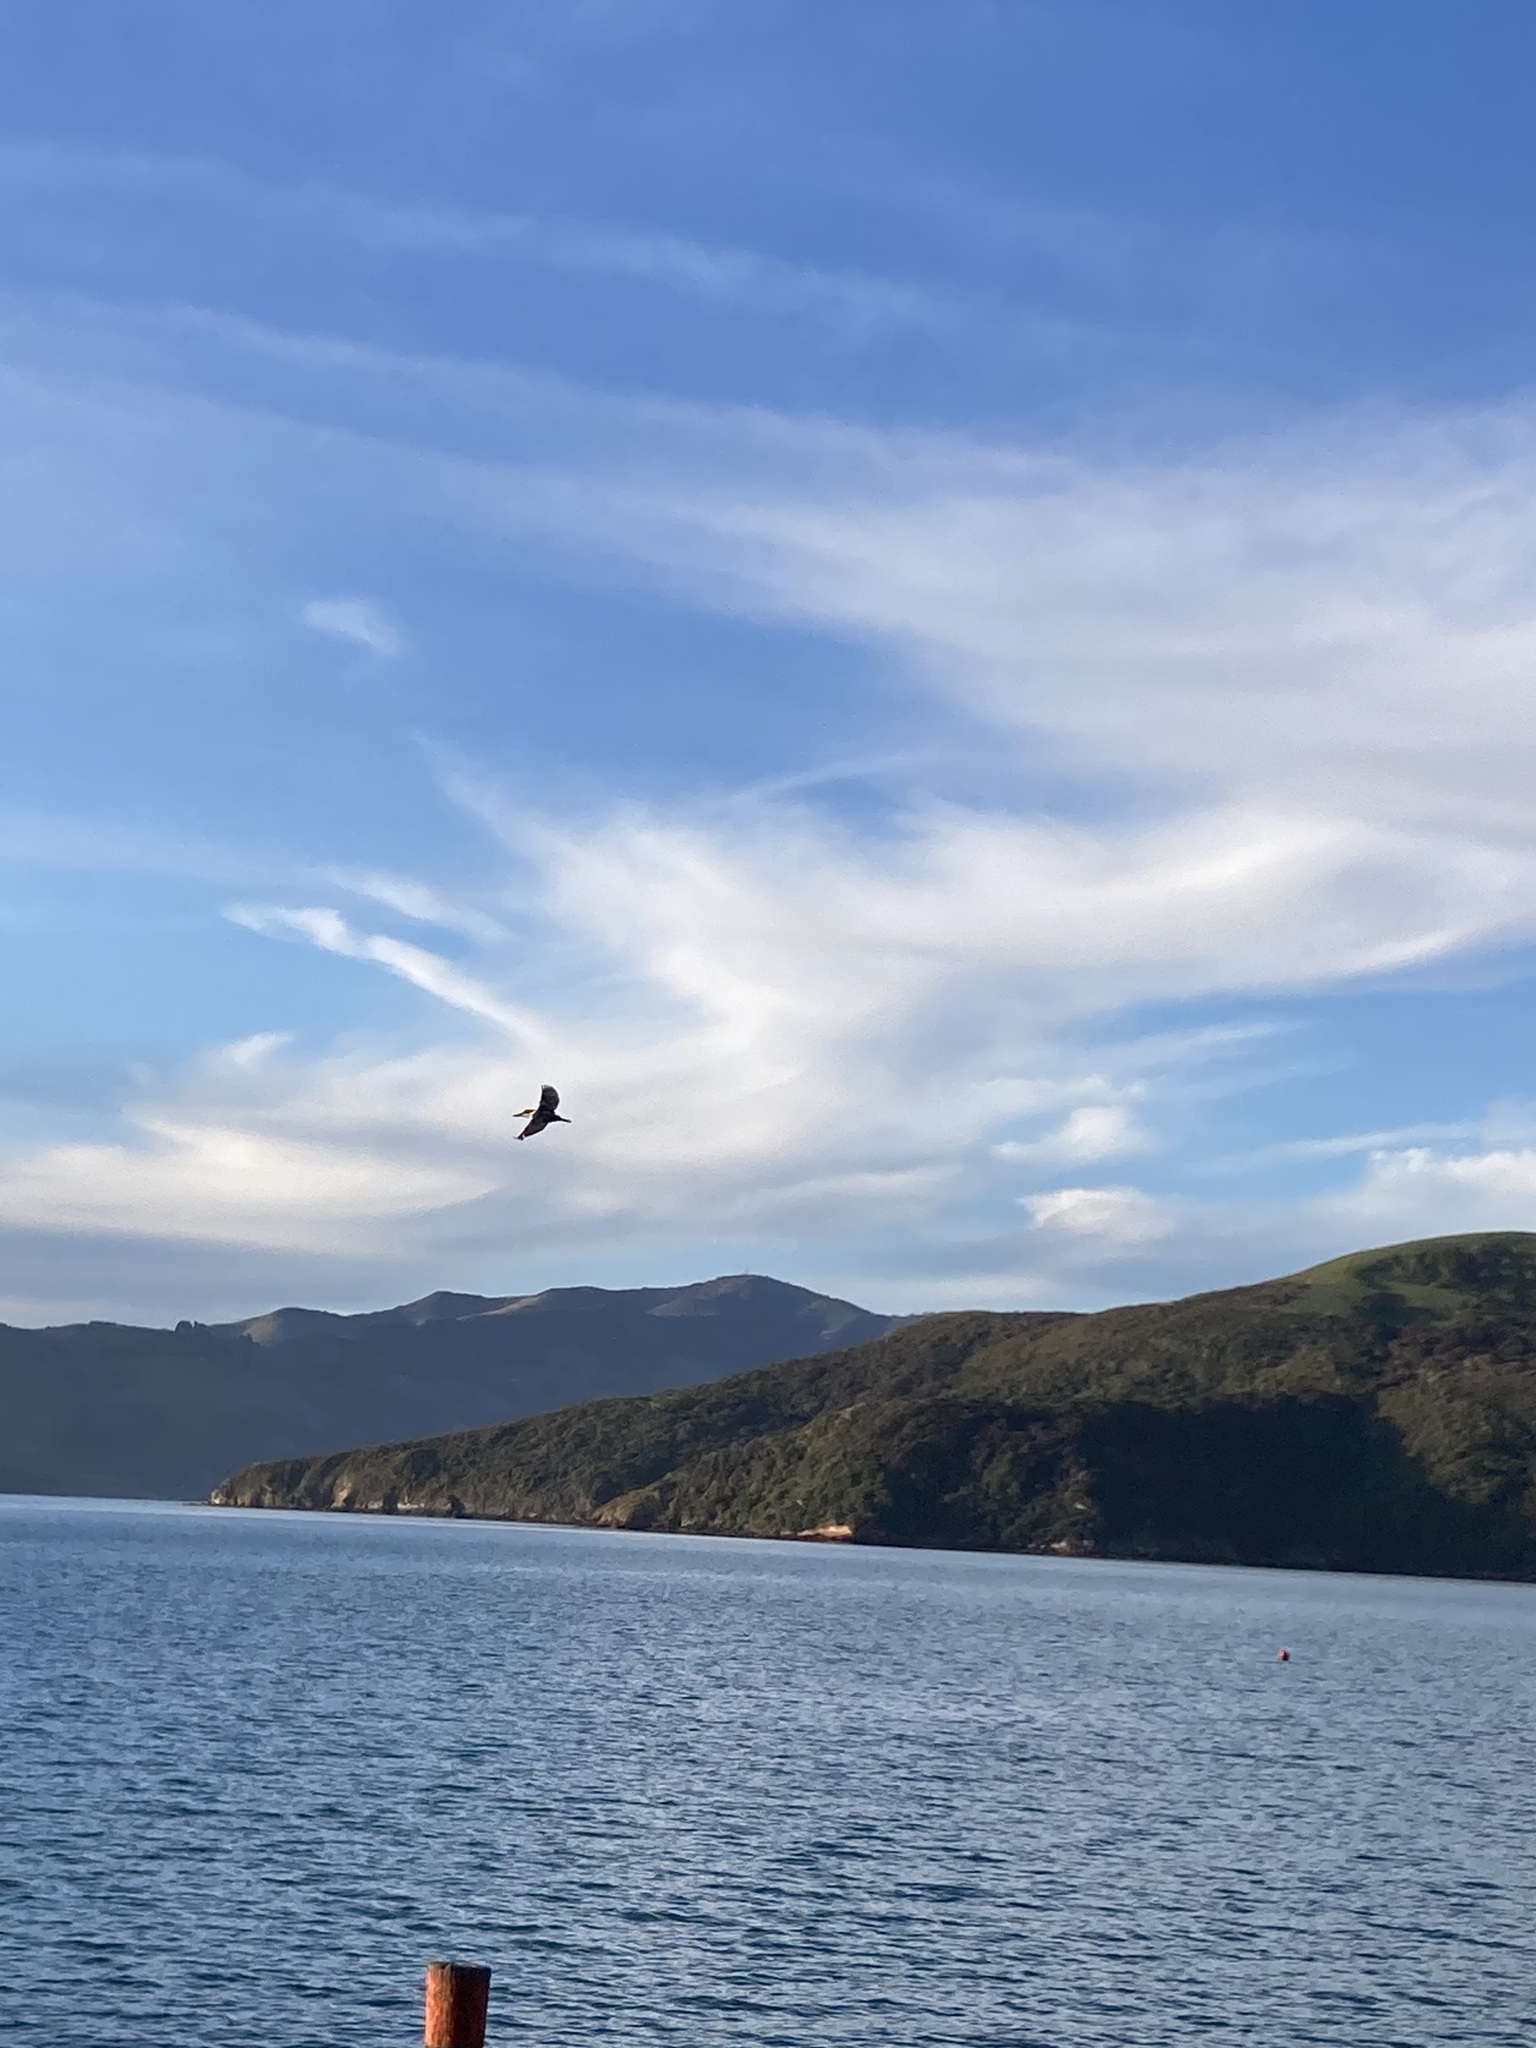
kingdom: Animalia
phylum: Chordata
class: Aves
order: Coraciiformes
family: Alcedinidae
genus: Todiramphus
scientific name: Todiramphus sanctus
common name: Sacred kingfisher
